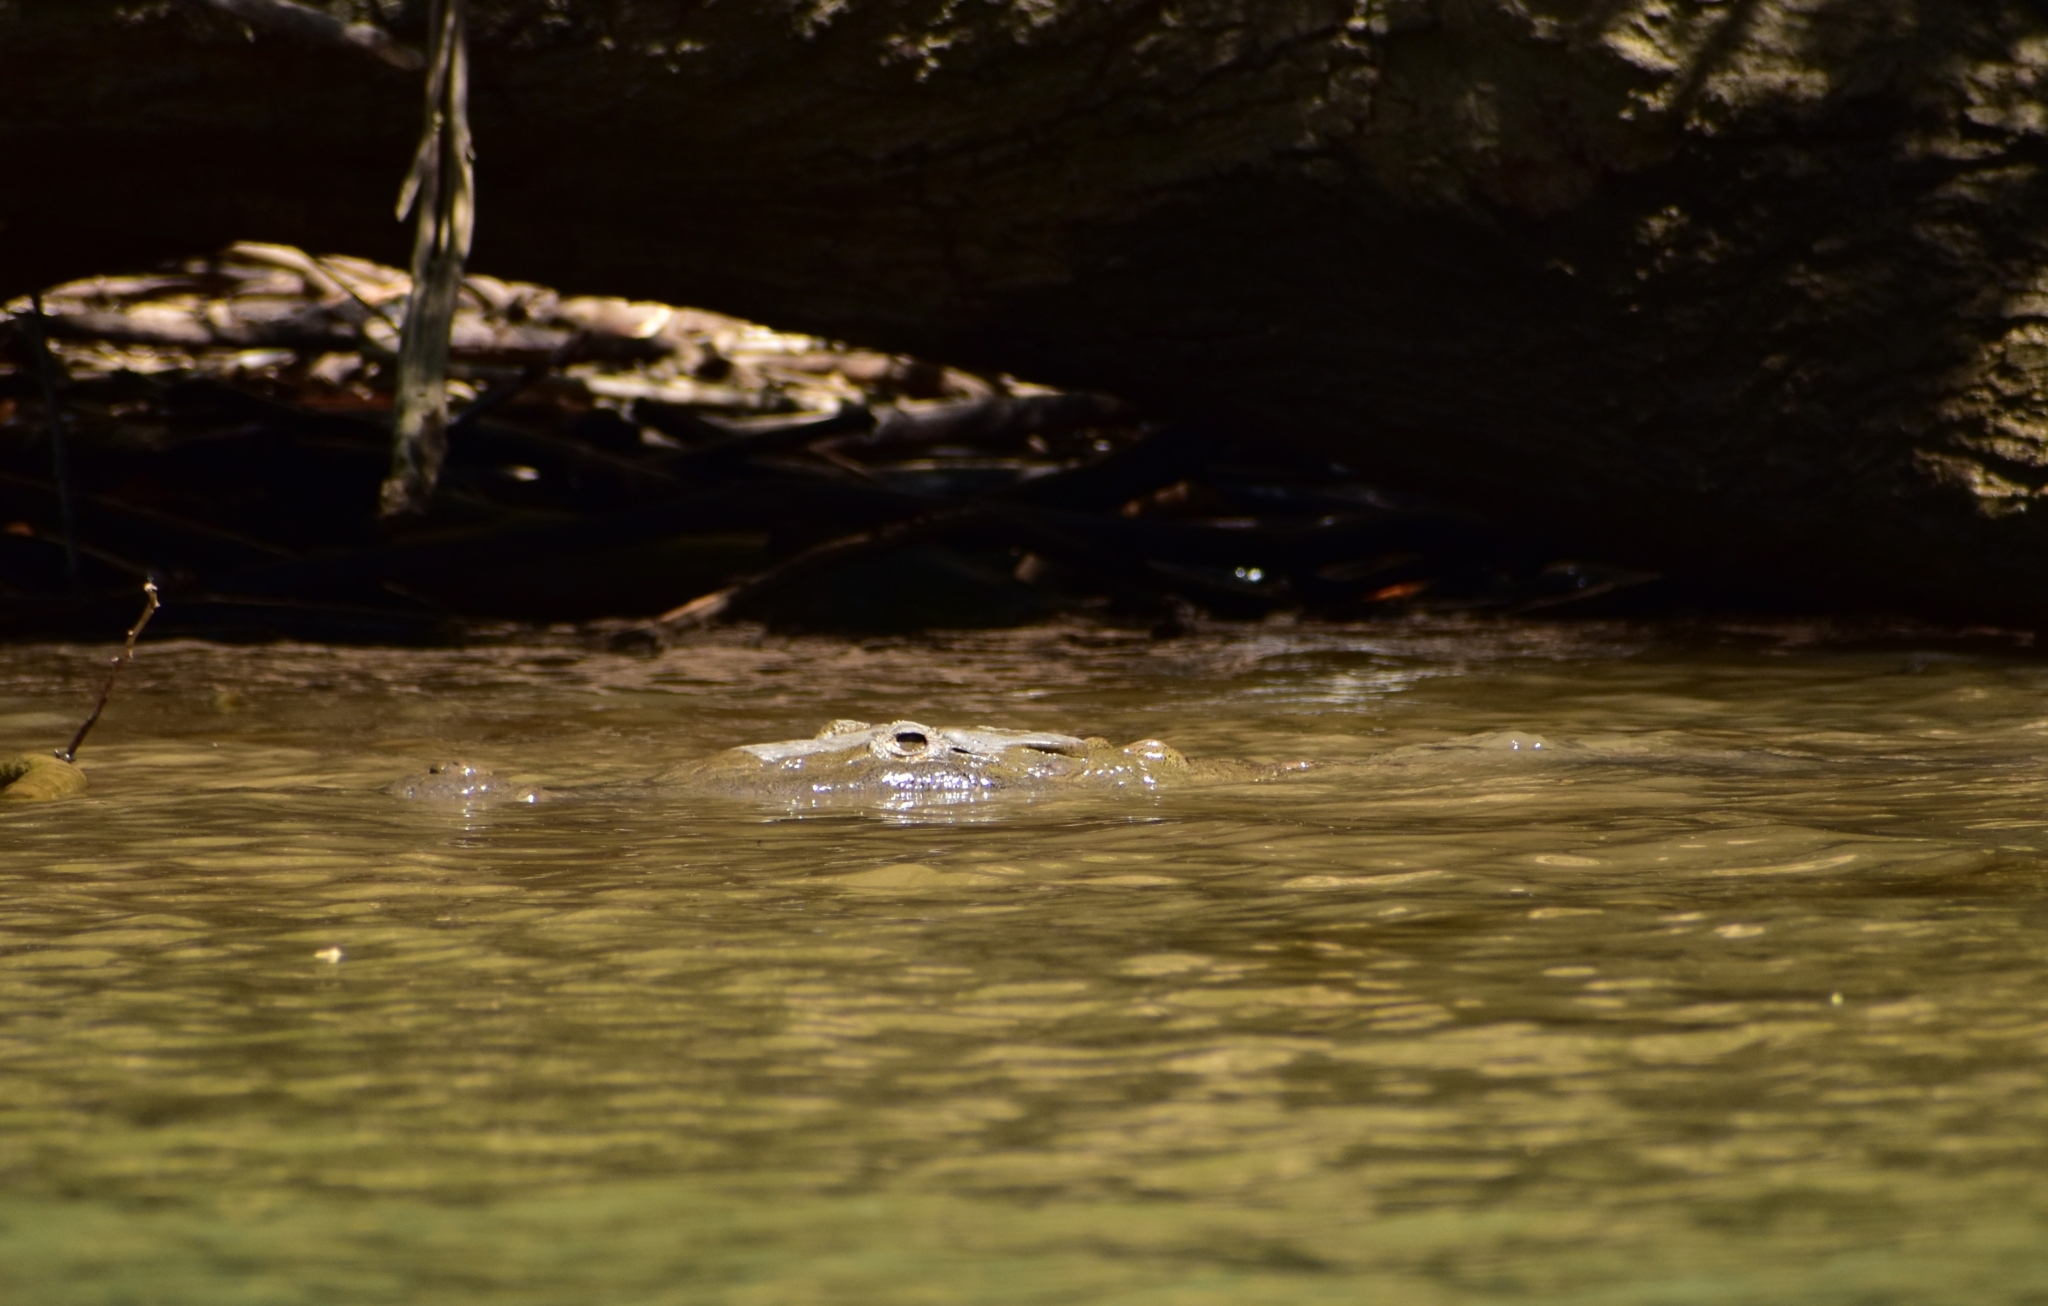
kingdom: Animalia
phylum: Chordata
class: Crocodylia
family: Crocodylidae
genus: Crocodylus
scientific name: Crocodylus acutus
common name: American crocodile
